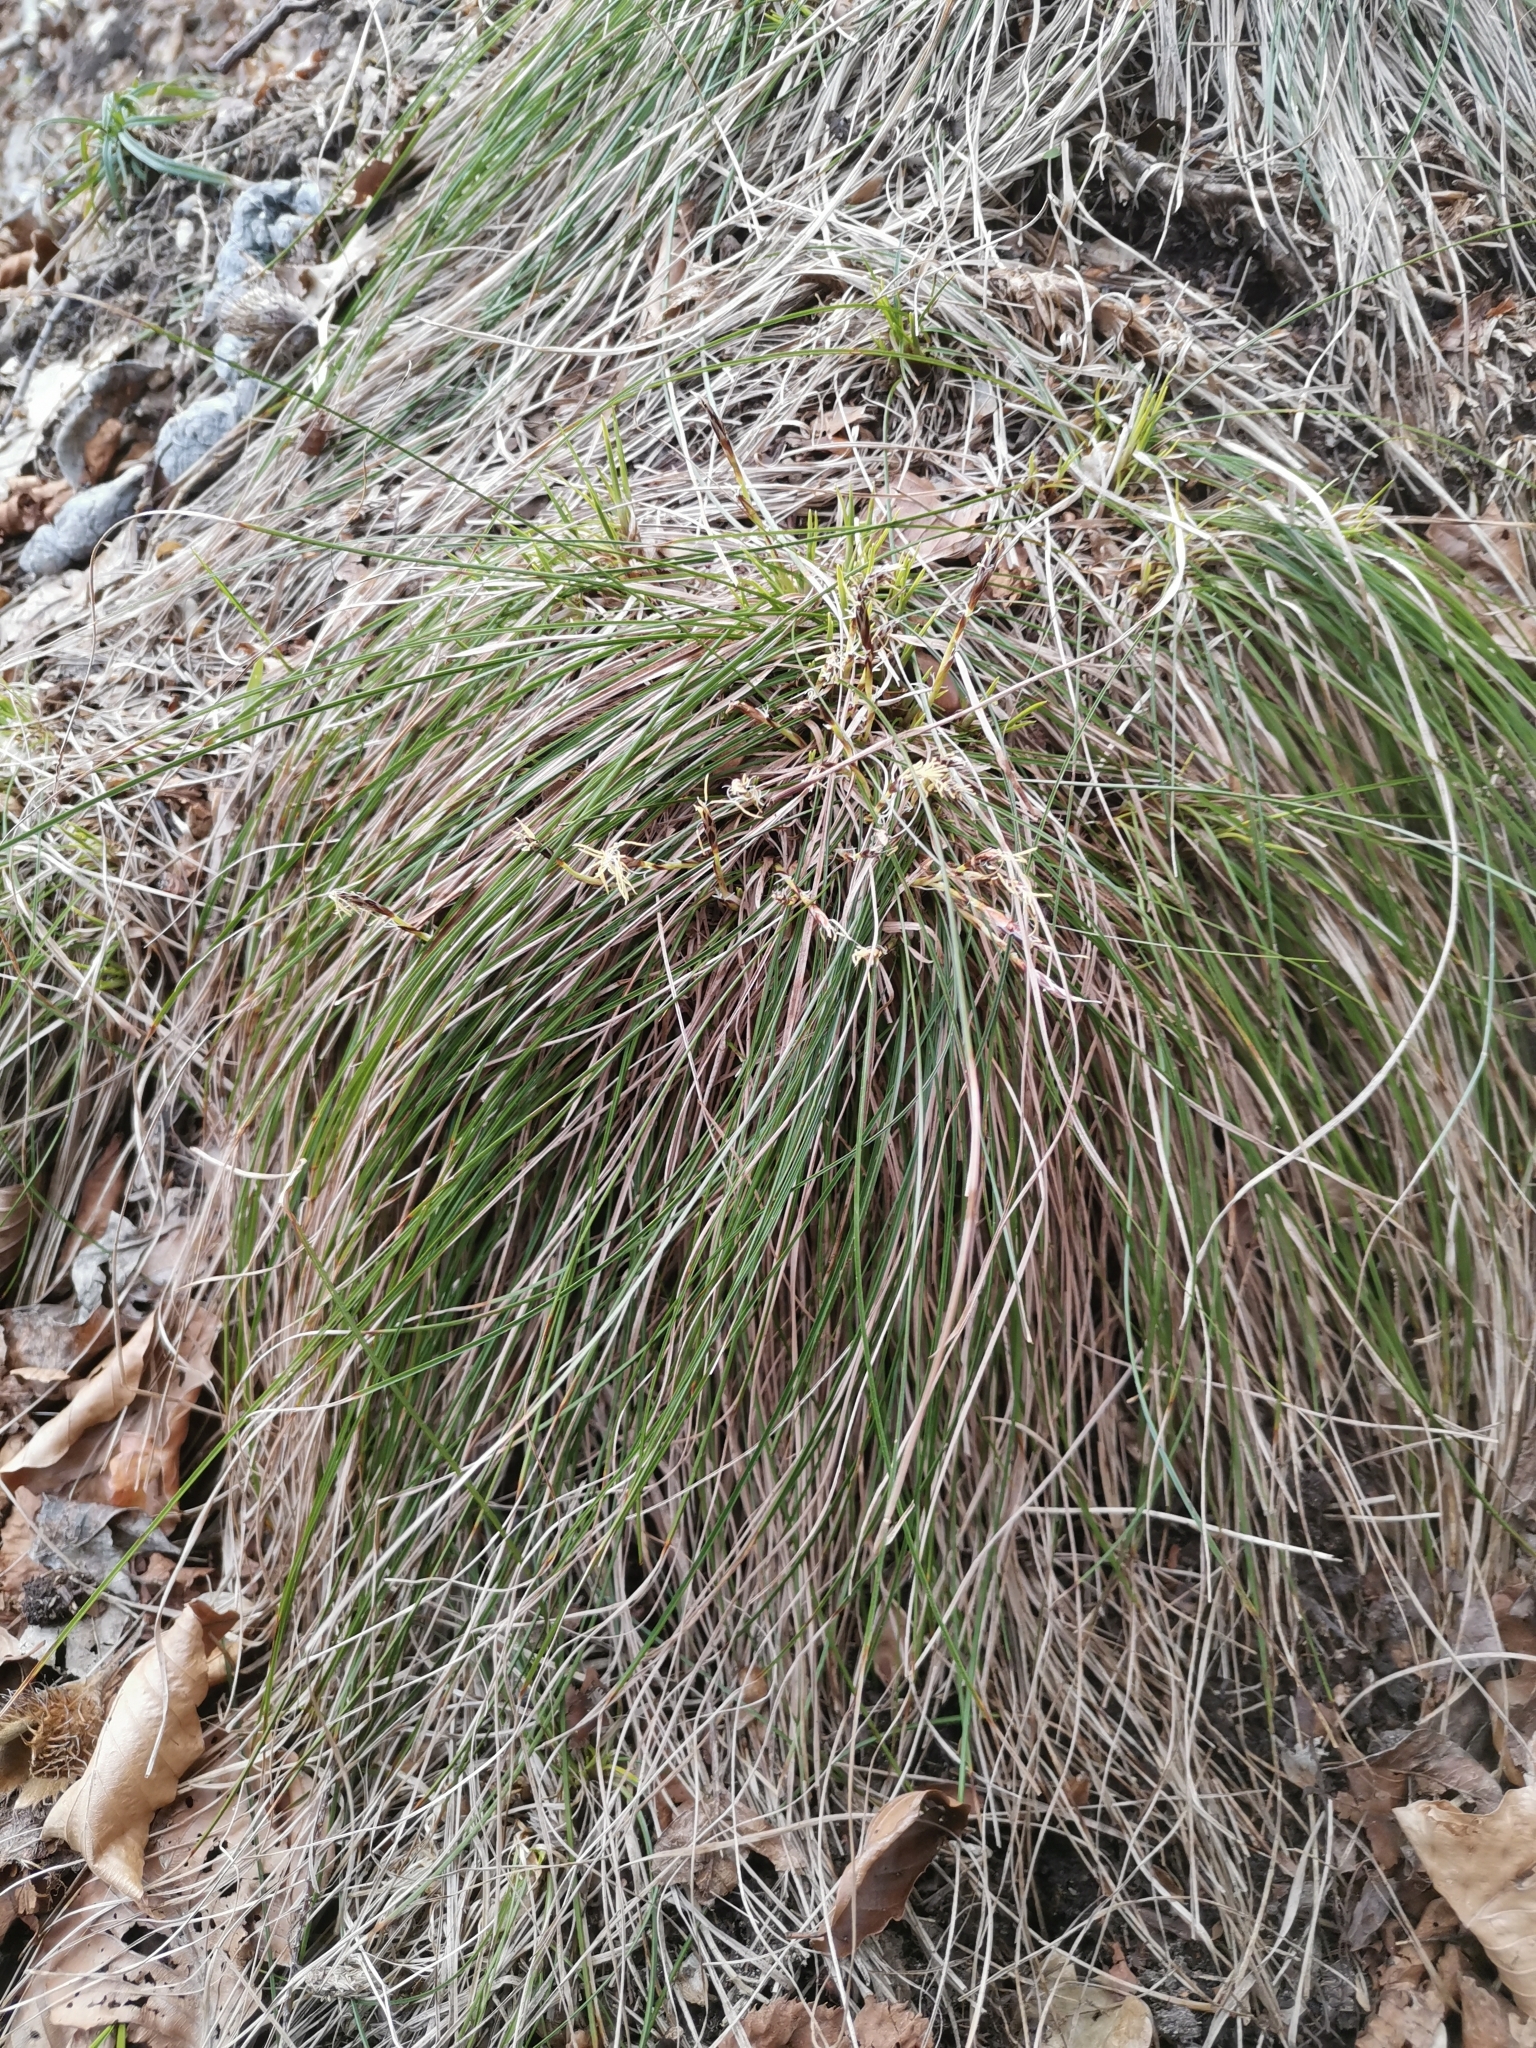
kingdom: Plantae
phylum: Tracheophyta
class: Liliopsida
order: Poales
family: Cyperaceae
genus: Carex
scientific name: Carex humilis
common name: Dwarf sedge
